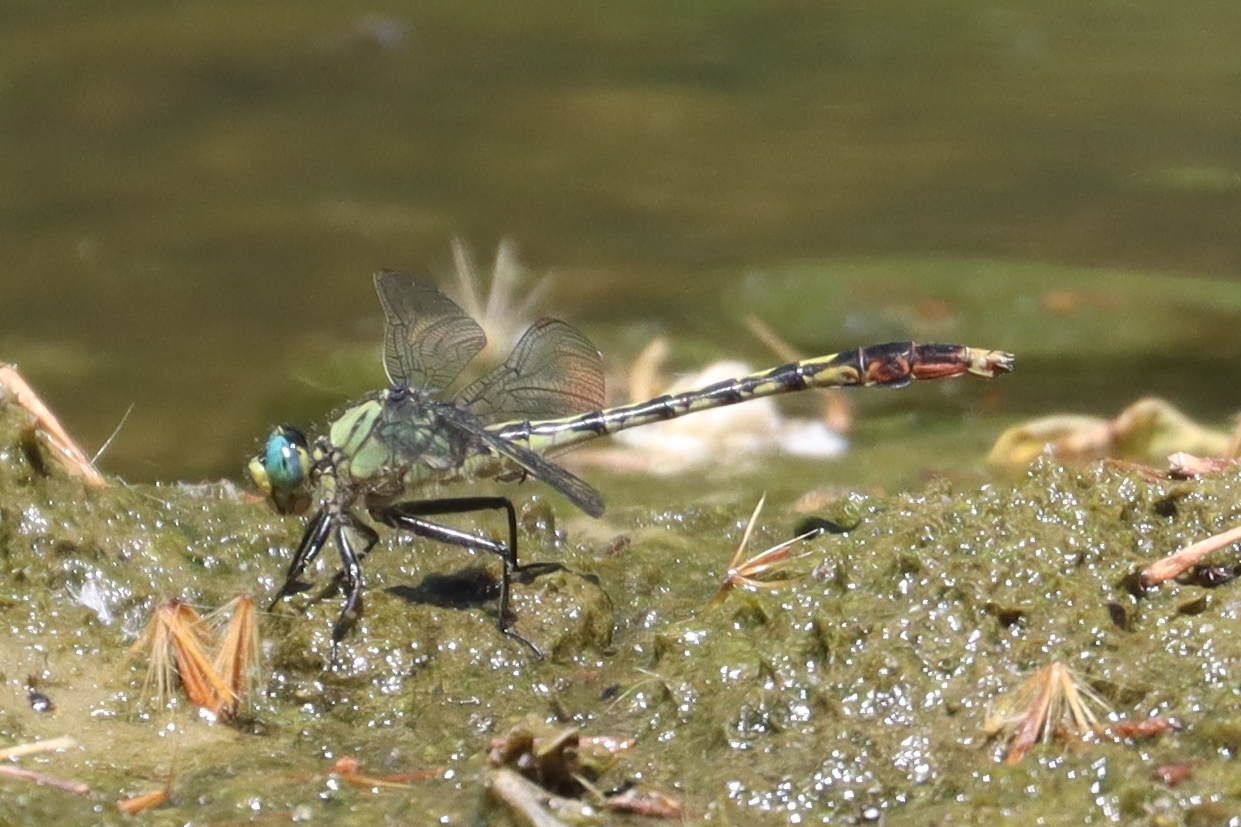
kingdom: Animalia
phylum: Arthropoda
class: Insecta
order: Odonata
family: Gomphidae
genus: Arigomphus
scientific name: Arigomphus villosipes
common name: Unicorn clubtail
